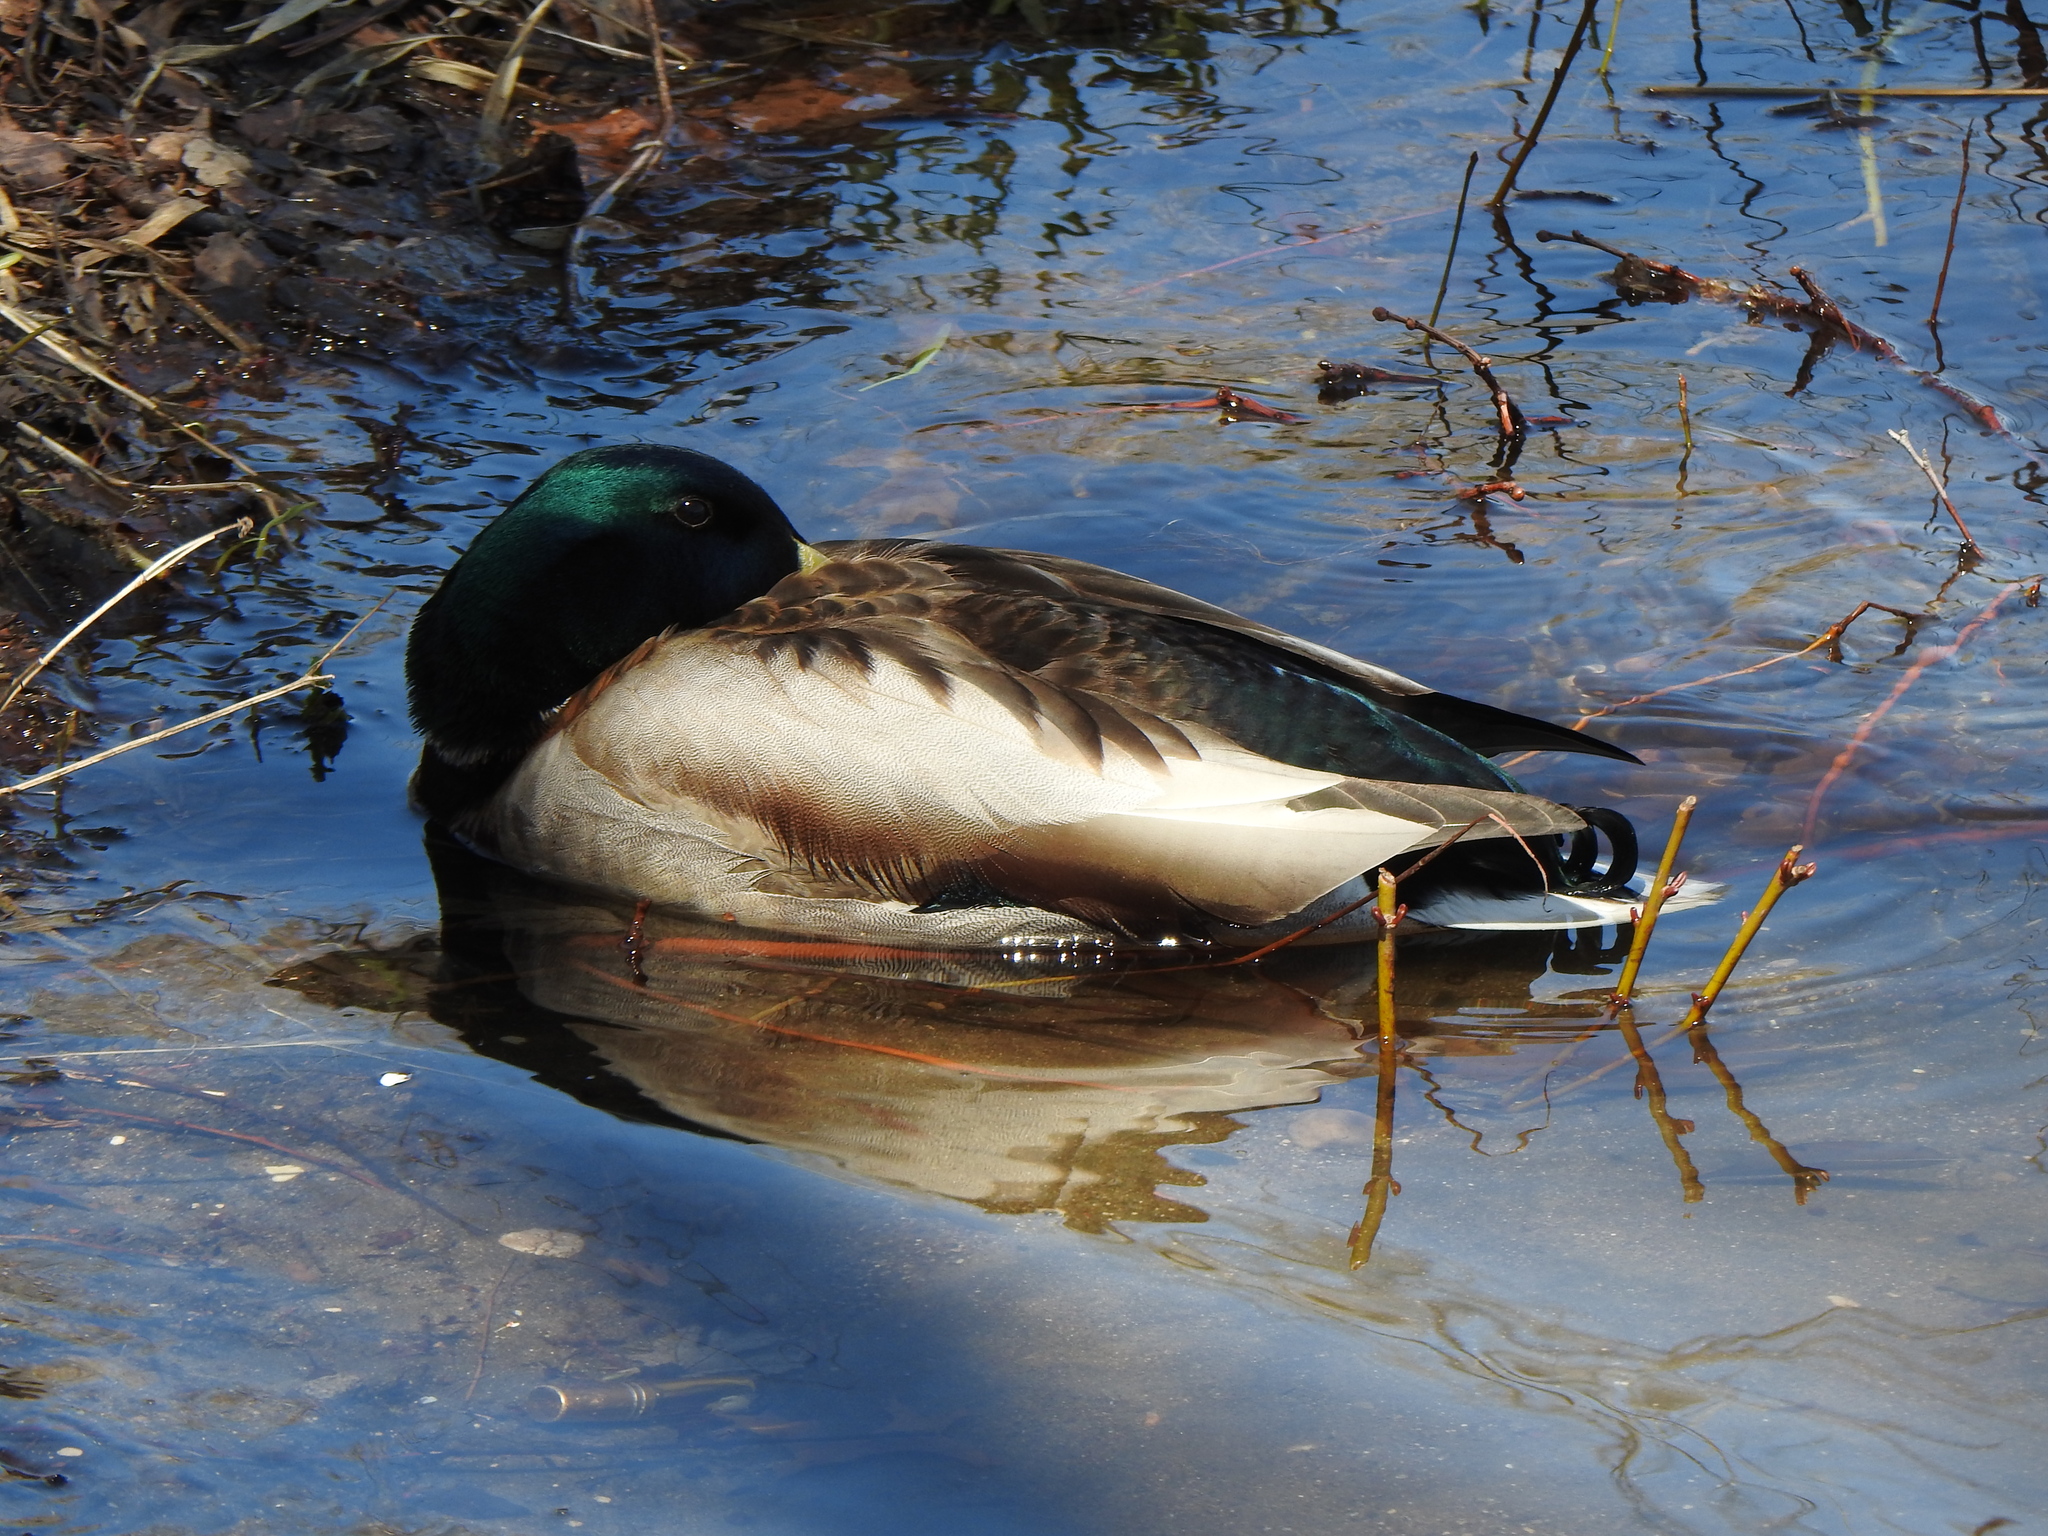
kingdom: Animalia
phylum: Chordata
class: Aves
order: Anseriformes
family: Anatidae
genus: Anas
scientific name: Anas platyrhynchos
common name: Mallard
